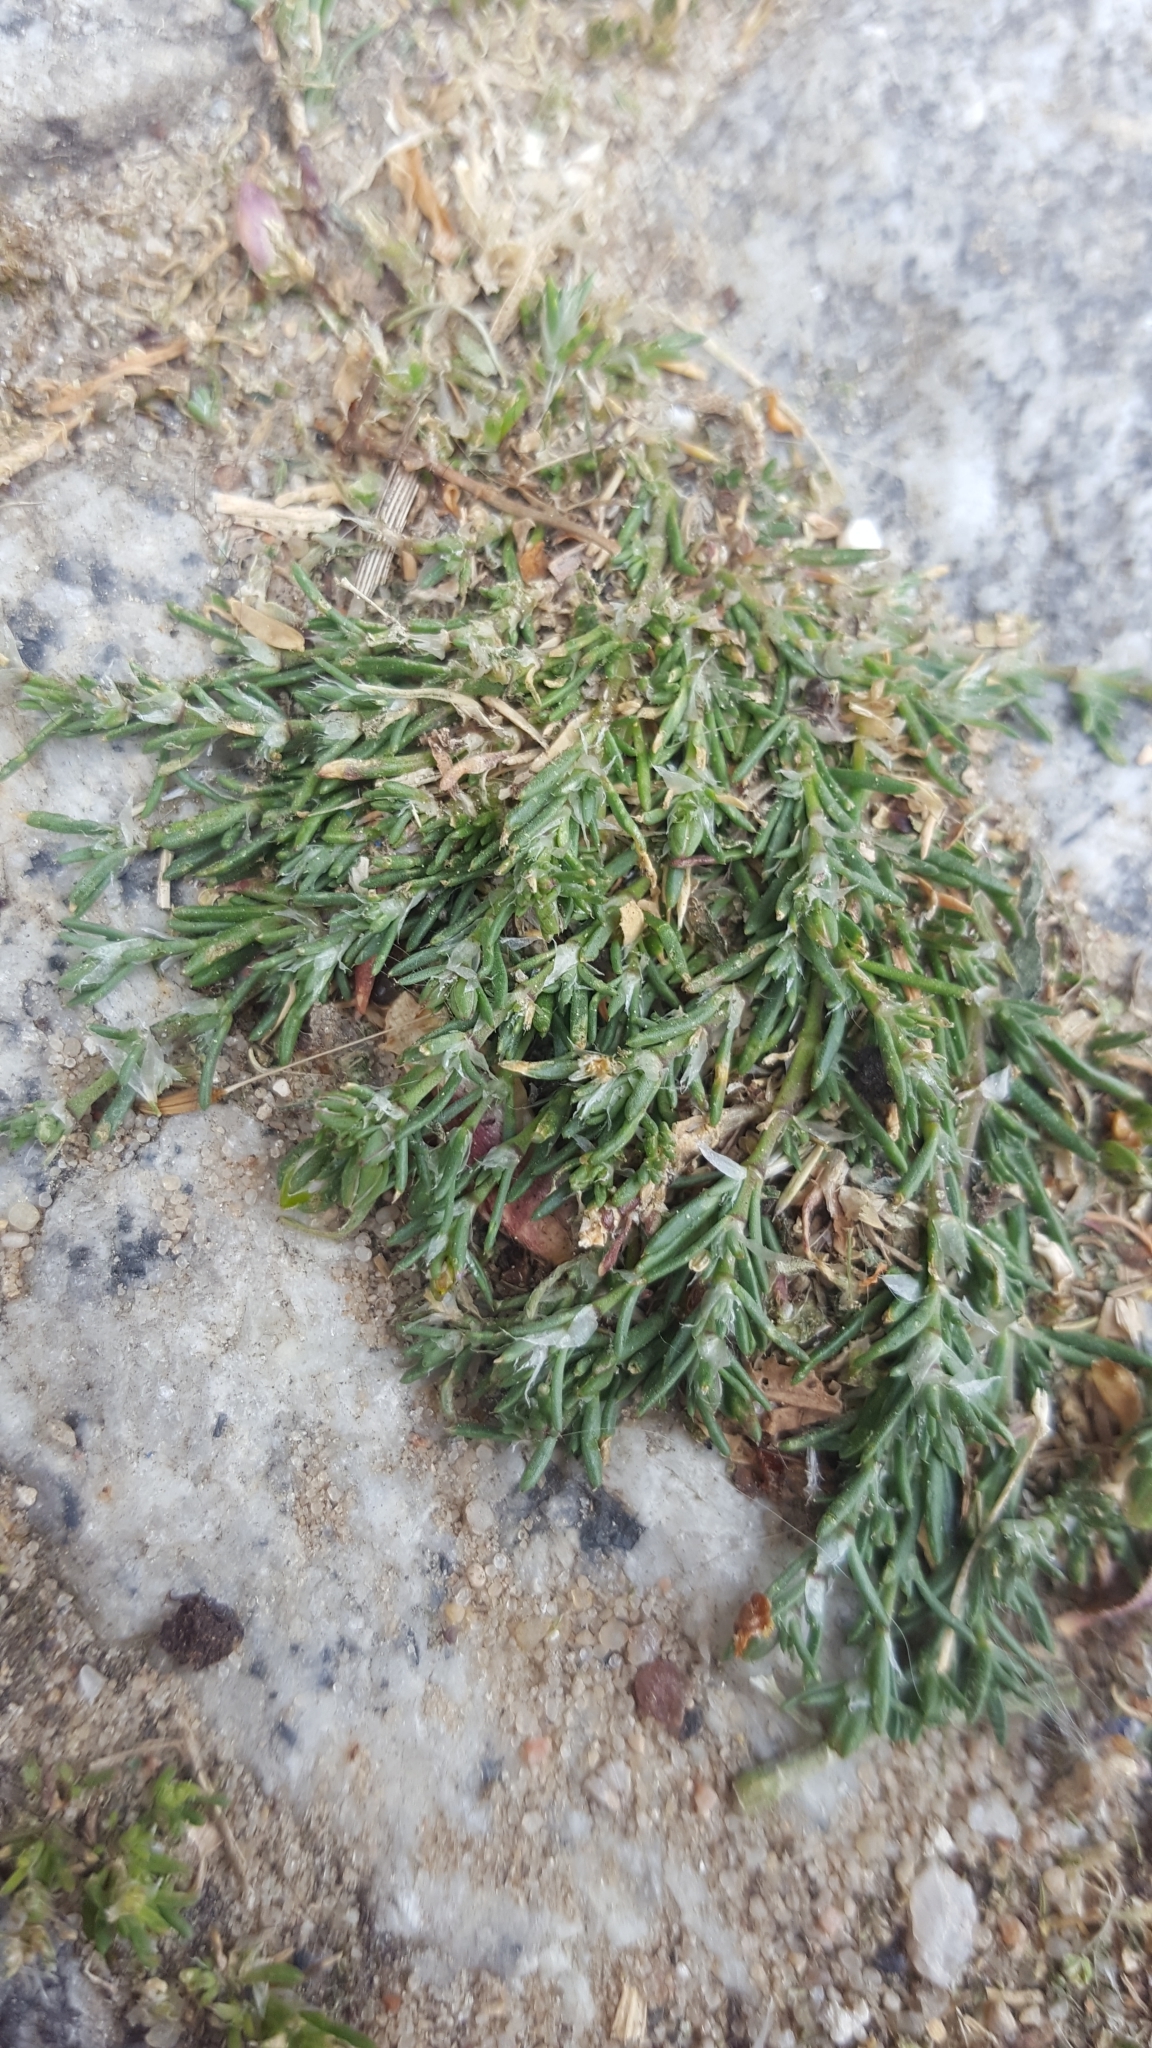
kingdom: Plantae
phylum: Tracheophyta
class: Magnoliopsida
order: Caryophyllales
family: Caryophyllaceae
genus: Spergularia
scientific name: Spergularia rubra
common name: Red sand-spurrey
